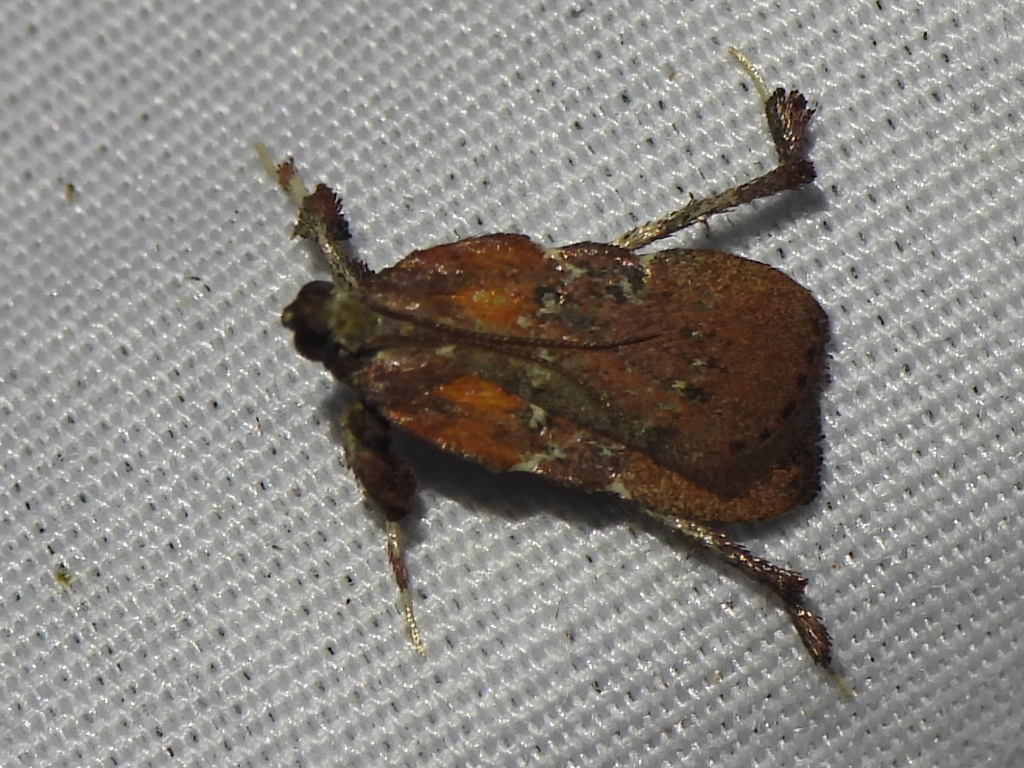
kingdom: Animalia
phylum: Arthropoda
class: Insecta
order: Lepidoptera
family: Pyralidae
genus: Galasa
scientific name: Galasa nigrinodis
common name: Boxwood leaftier moth
